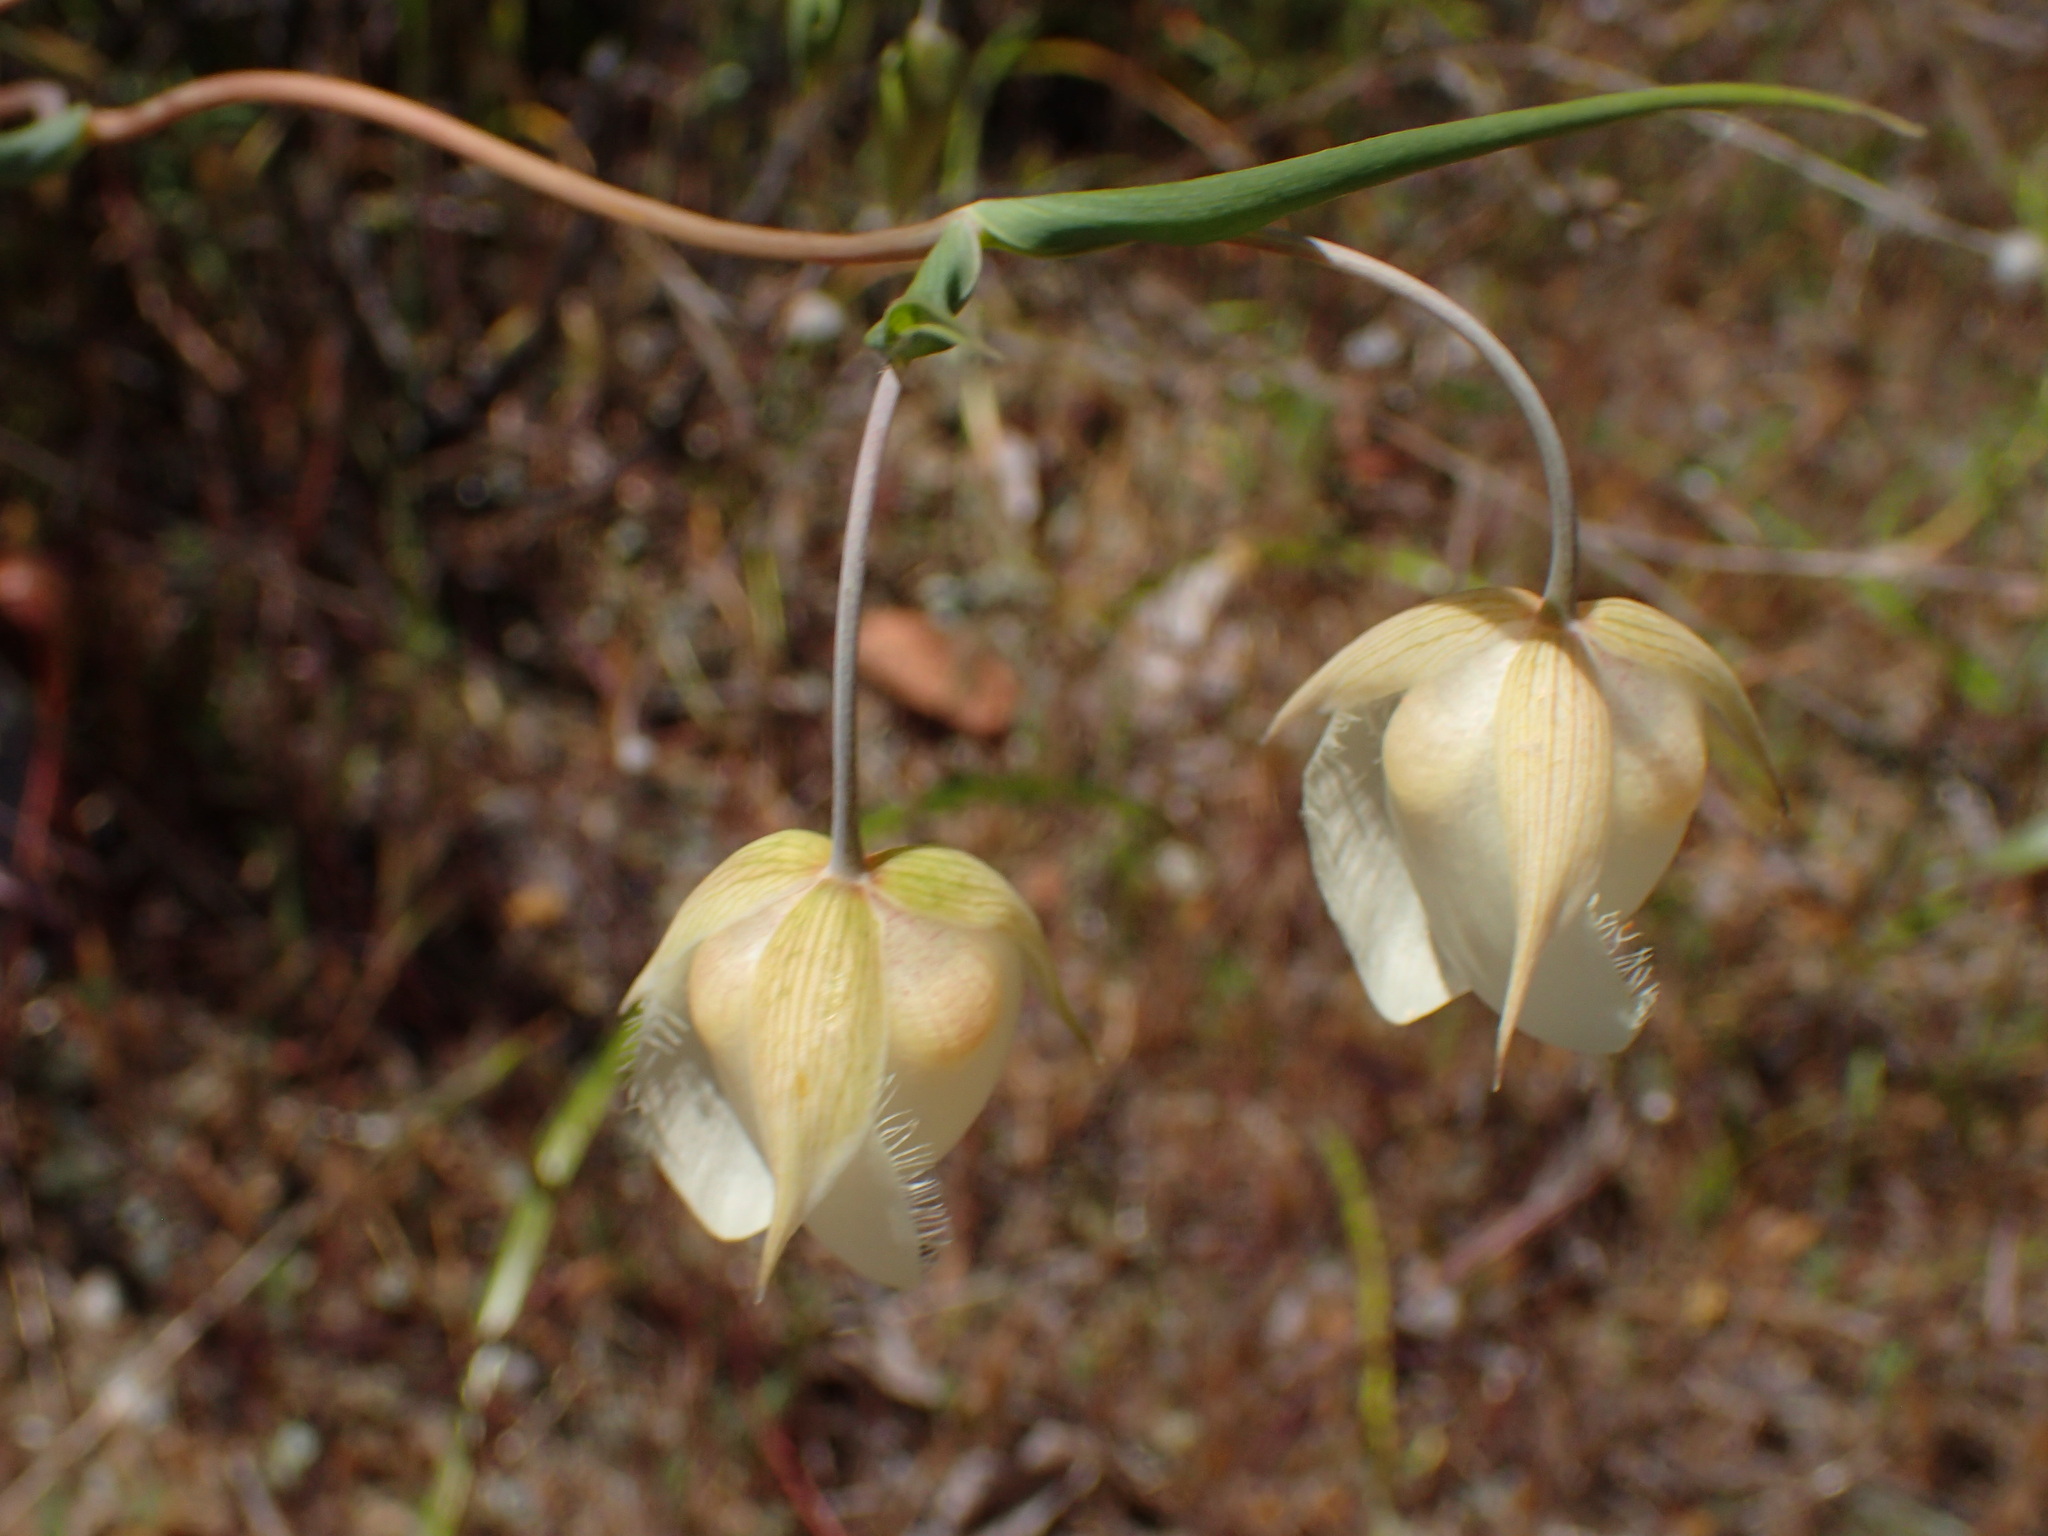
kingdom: Plantae
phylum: Tracheophyta
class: Liliopsida
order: Liliales
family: Liliaceae
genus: Calochortus
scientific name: Calochortus albus
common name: Fairy-lantern
